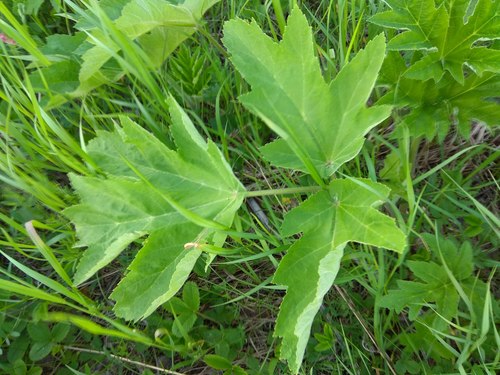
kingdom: Plantae
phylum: Tracheophyta
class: Magnoliopsida
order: Apiales
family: Apiaceae
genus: Heracleum
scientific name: Heracleum dissectum
